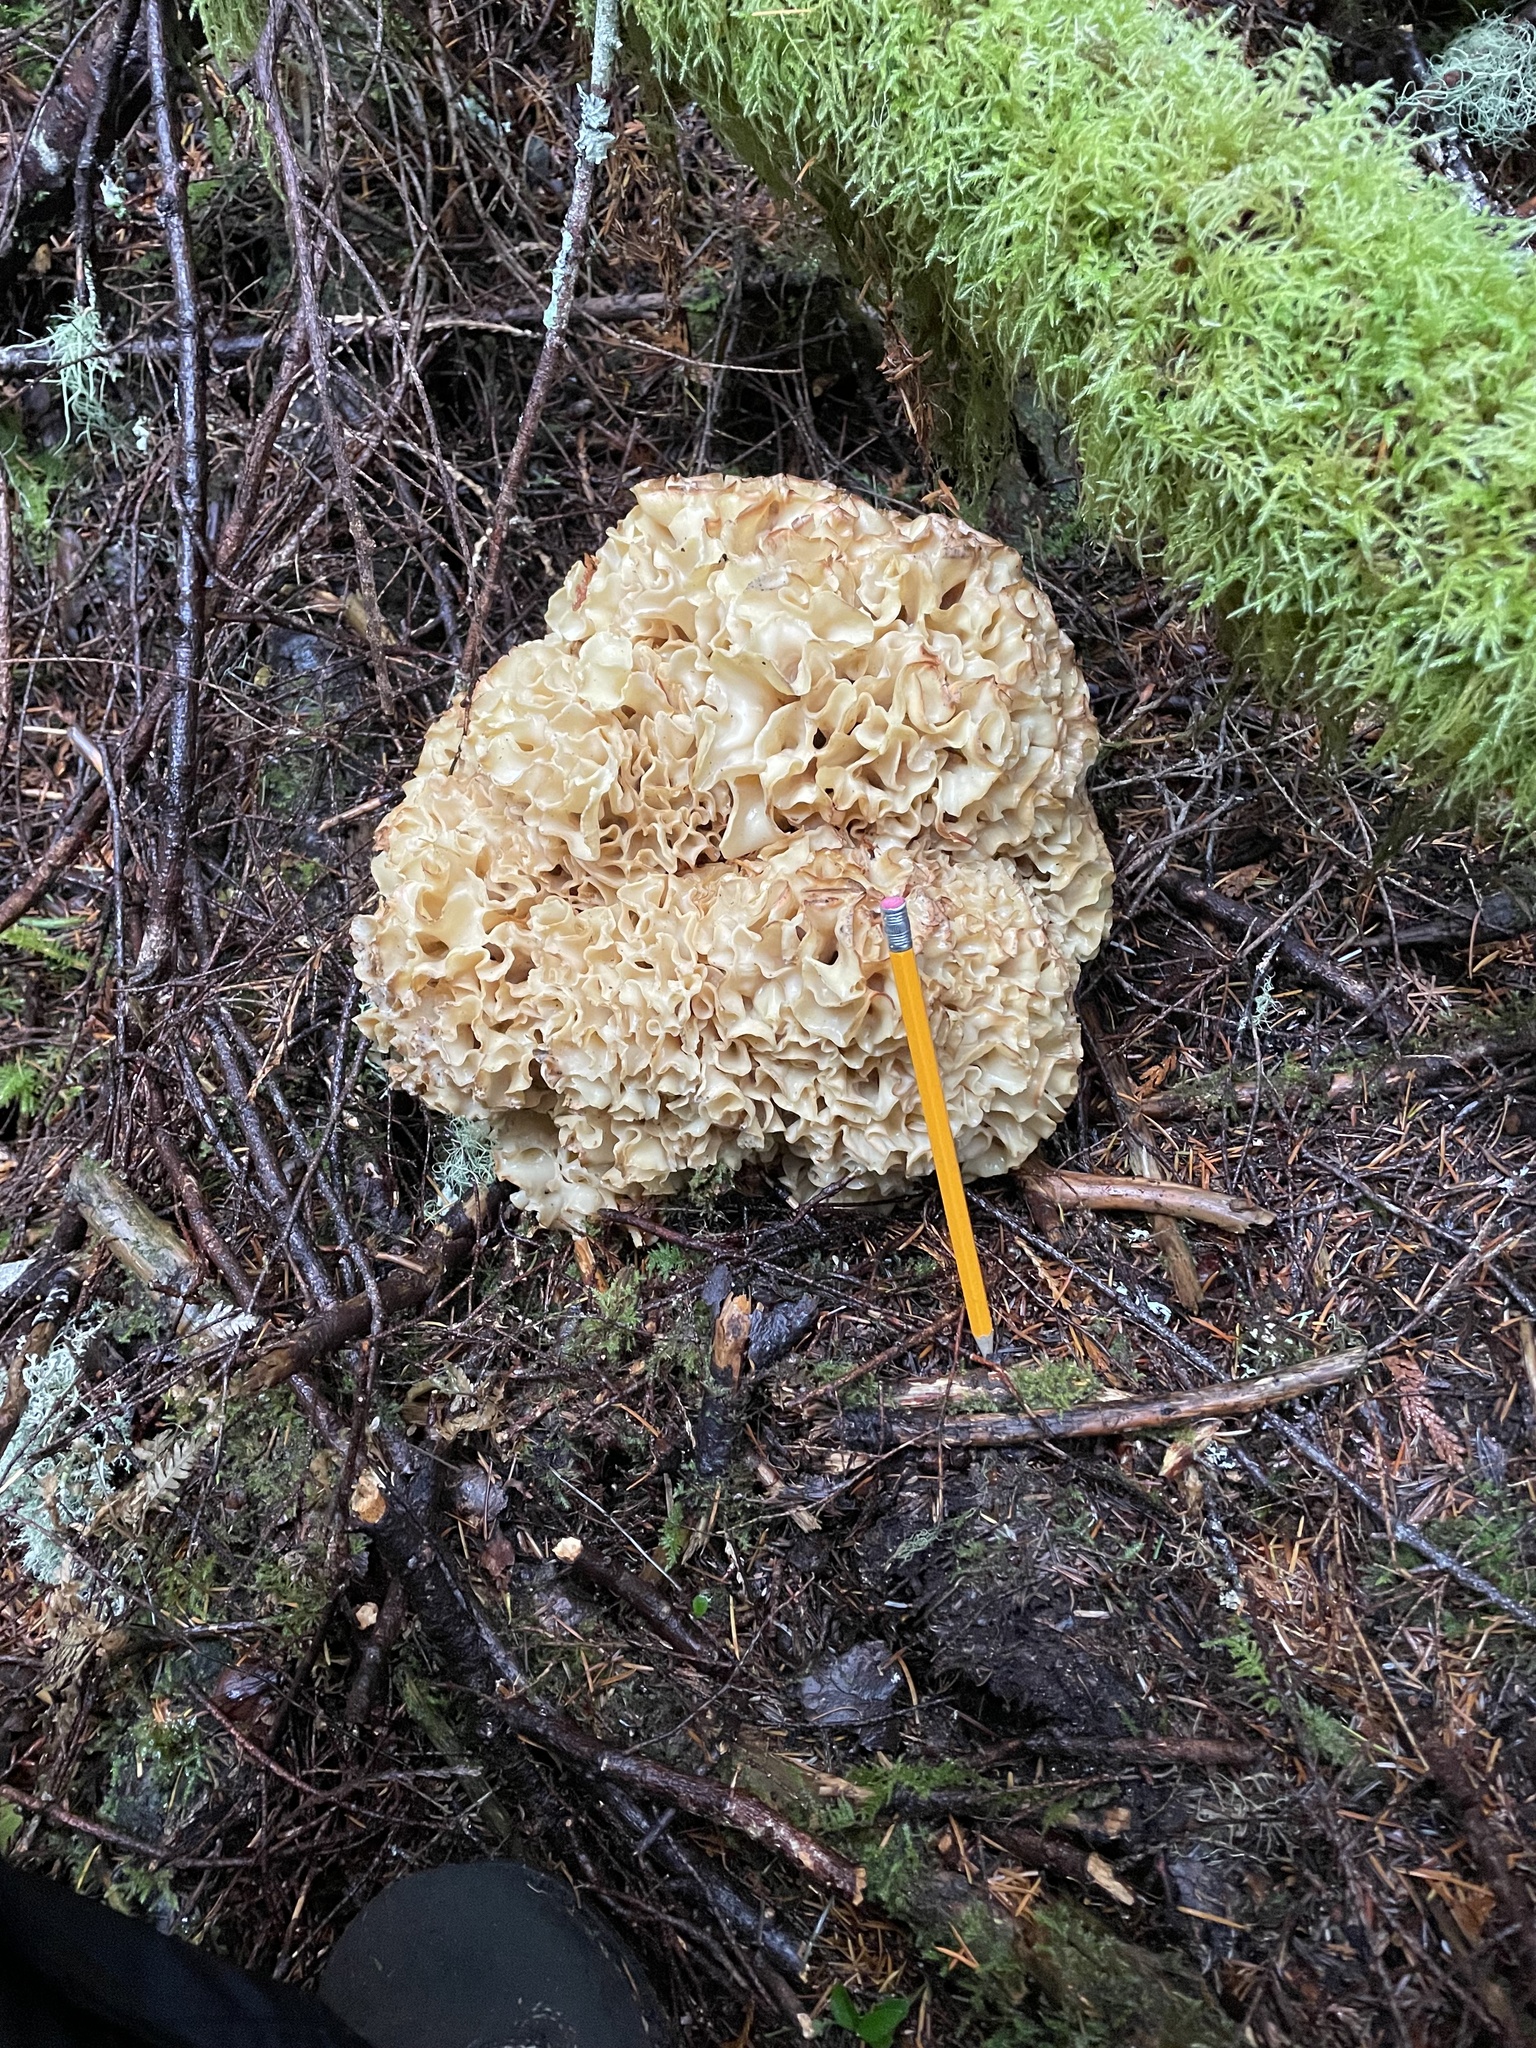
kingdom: Fungi
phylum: Basidiomycota
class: Agaricomycetes
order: Polyporales
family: Sparassidaceae
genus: Sparassis
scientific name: Sparassis crispa
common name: Brain fungus
